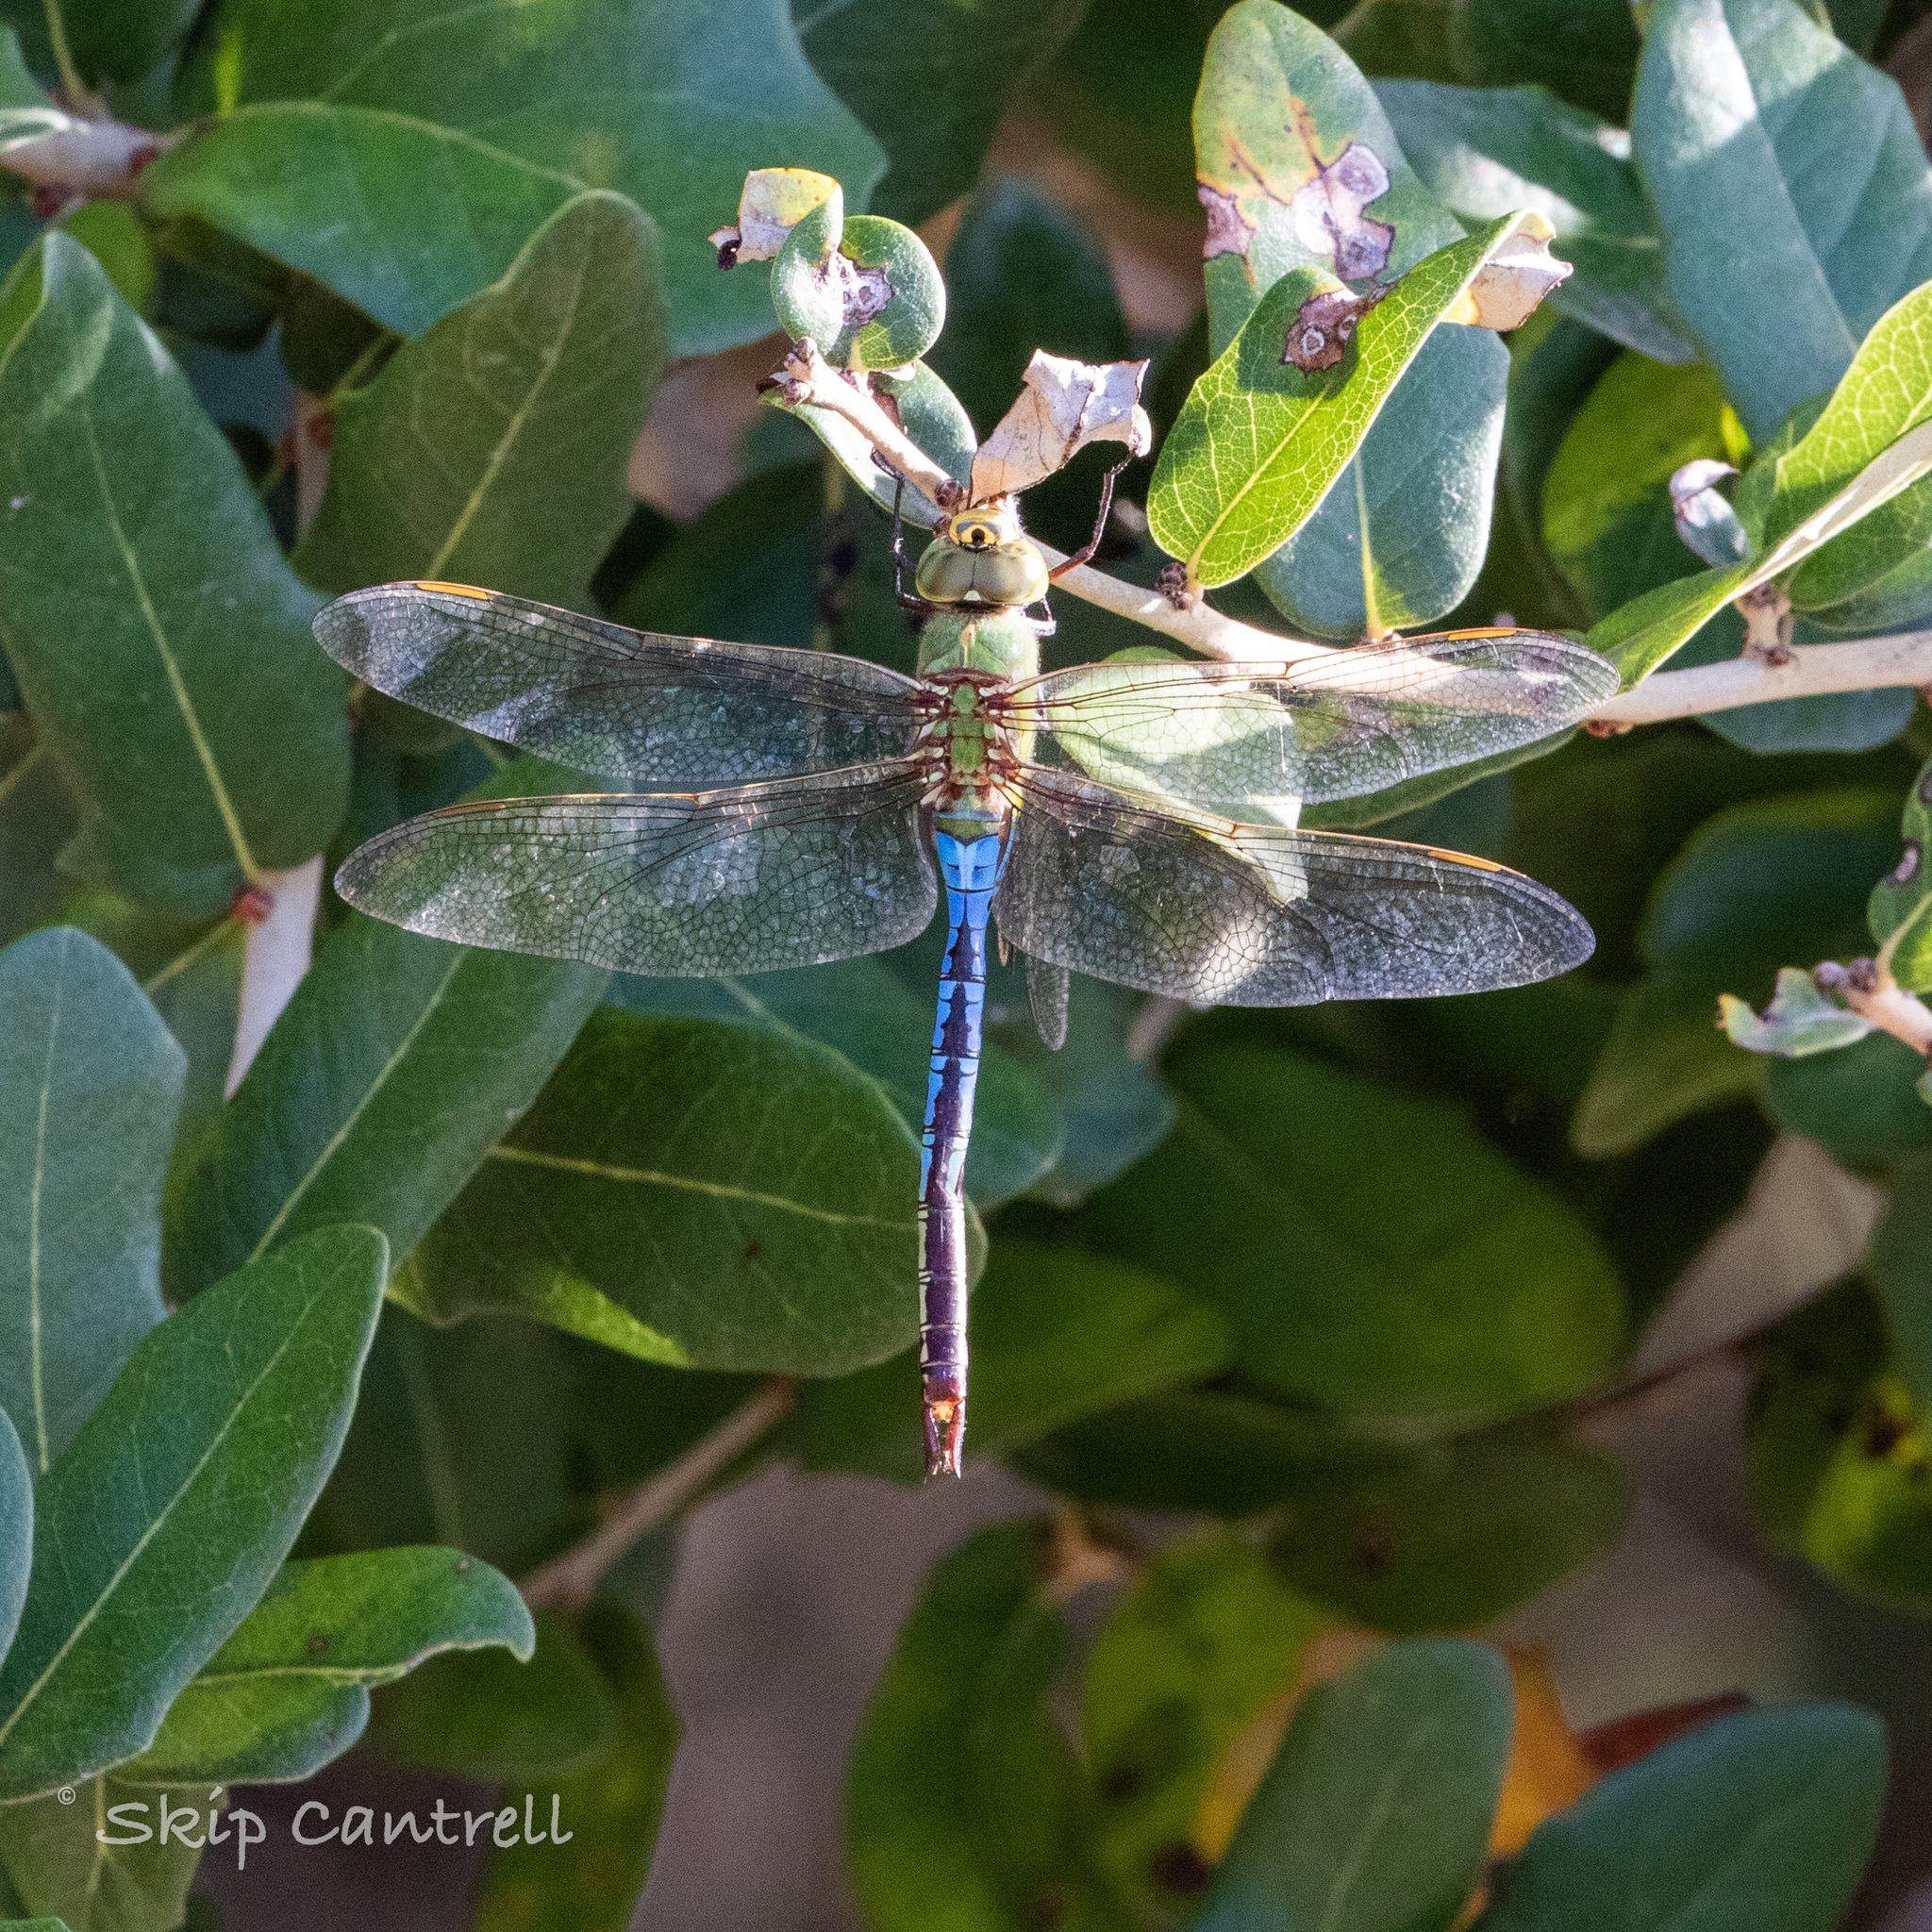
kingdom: Animalia
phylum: Arthropoda
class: Insecta
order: Odonata
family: Aeshnidae
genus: Anax
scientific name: Anax junius
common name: Common green darner
